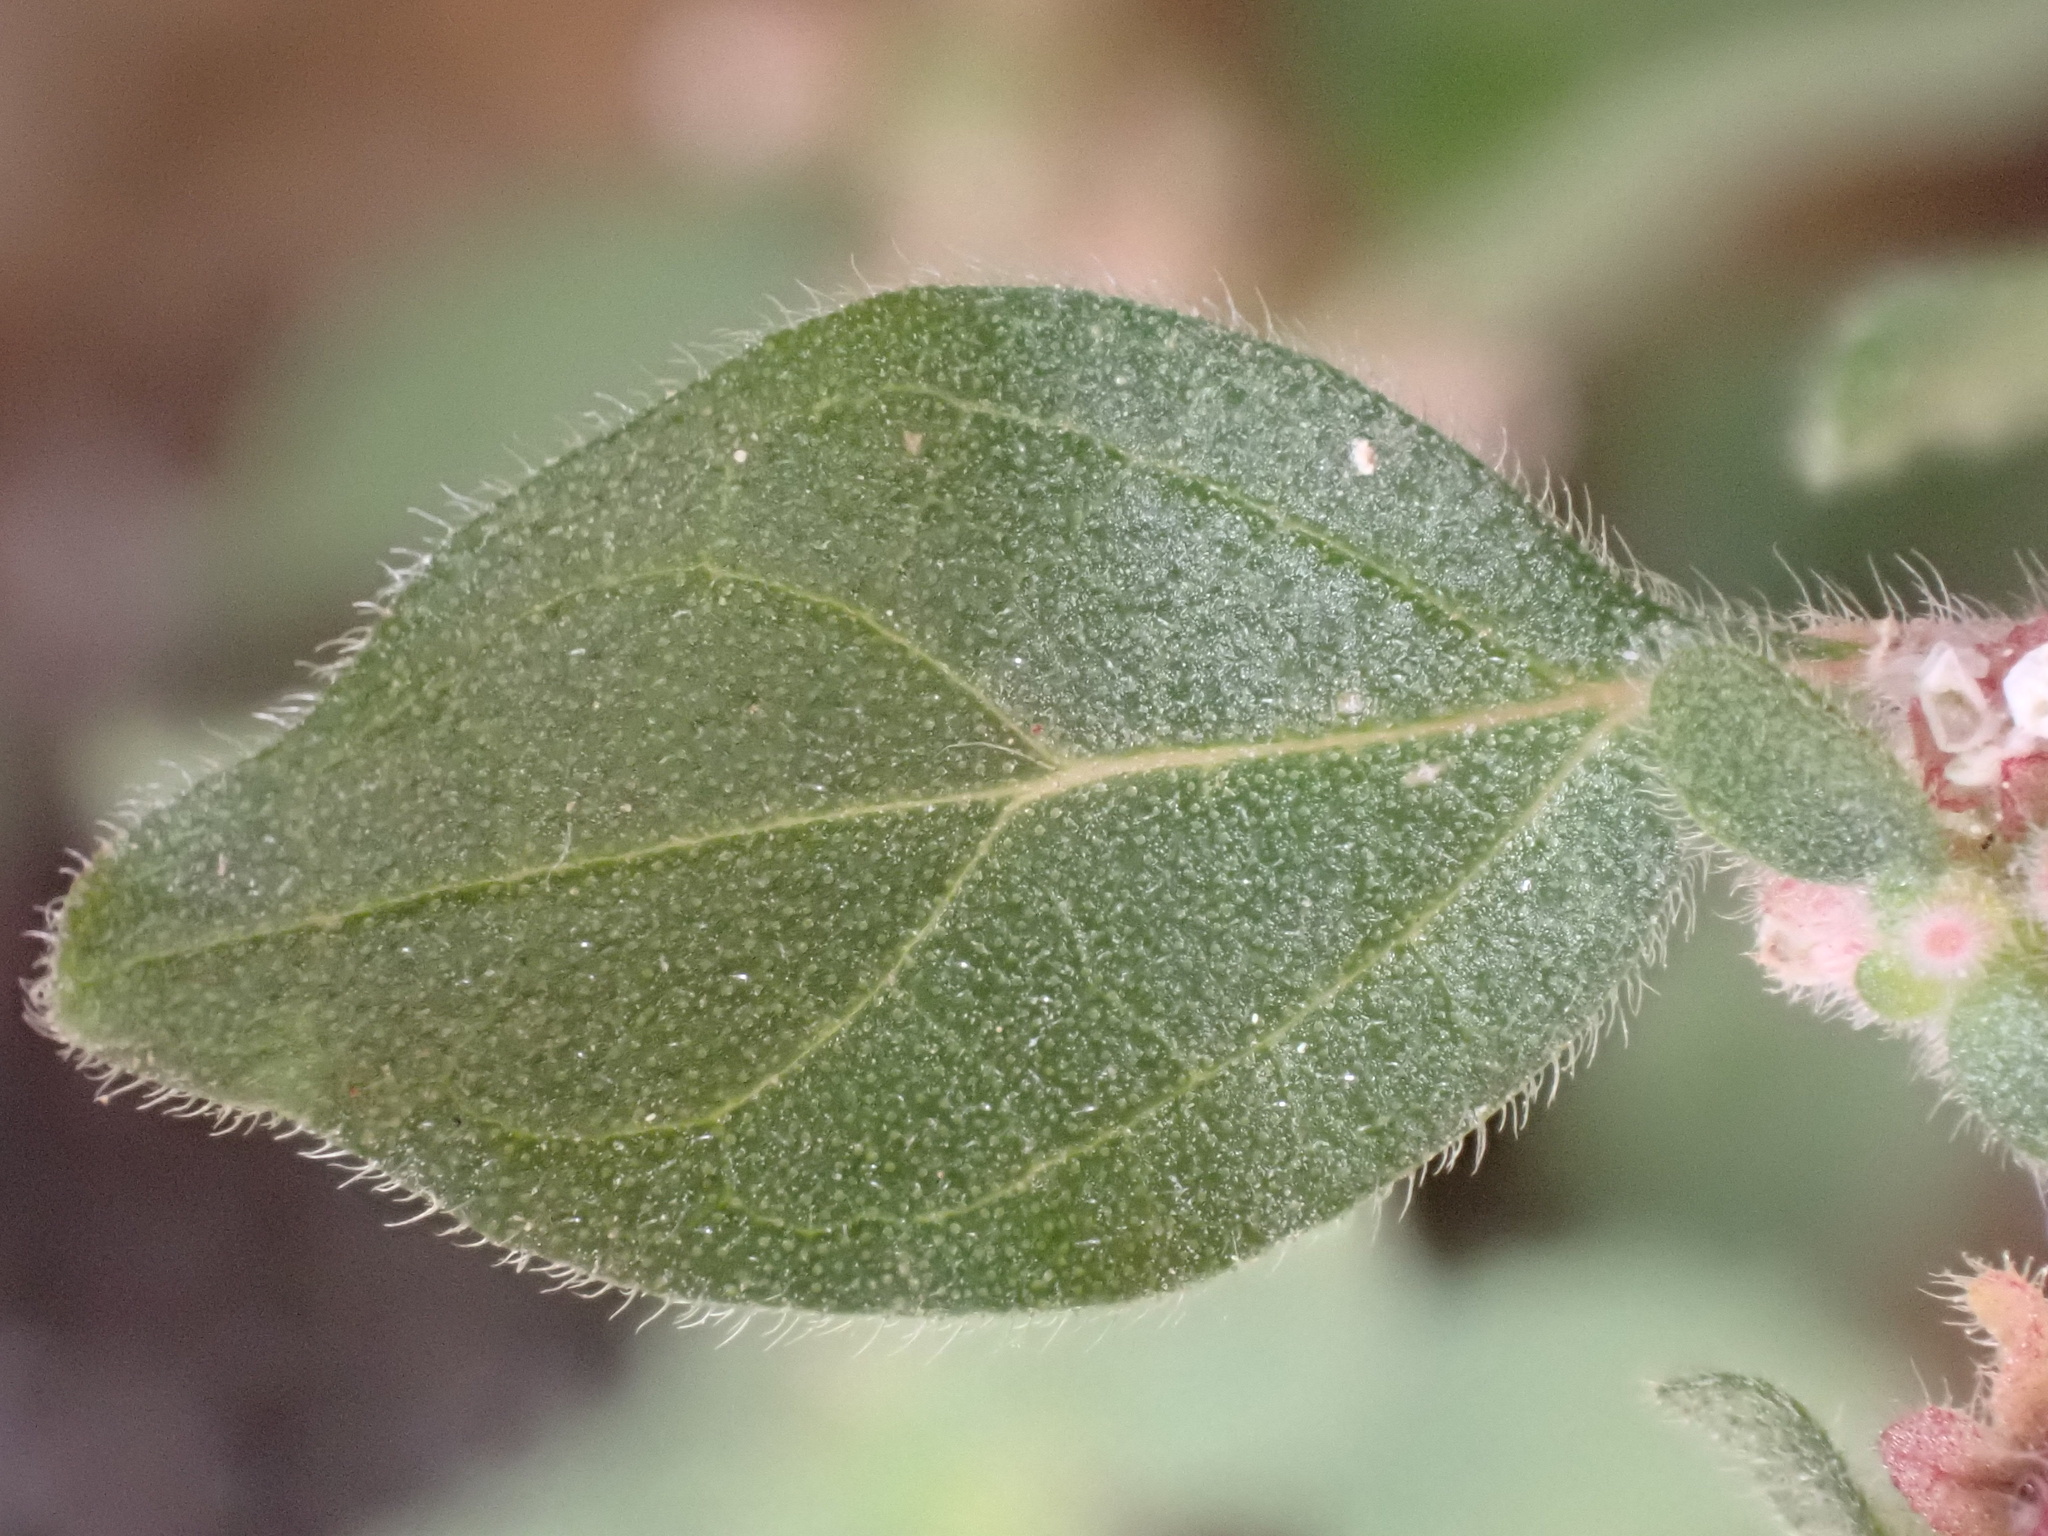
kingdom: Plantae
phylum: Tracheophyta
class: Magnoliopsida
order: Rosales
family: Urticaceae
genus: Parietaria
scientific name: Parietaria judaica
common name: Pellitory-of-the-wall
